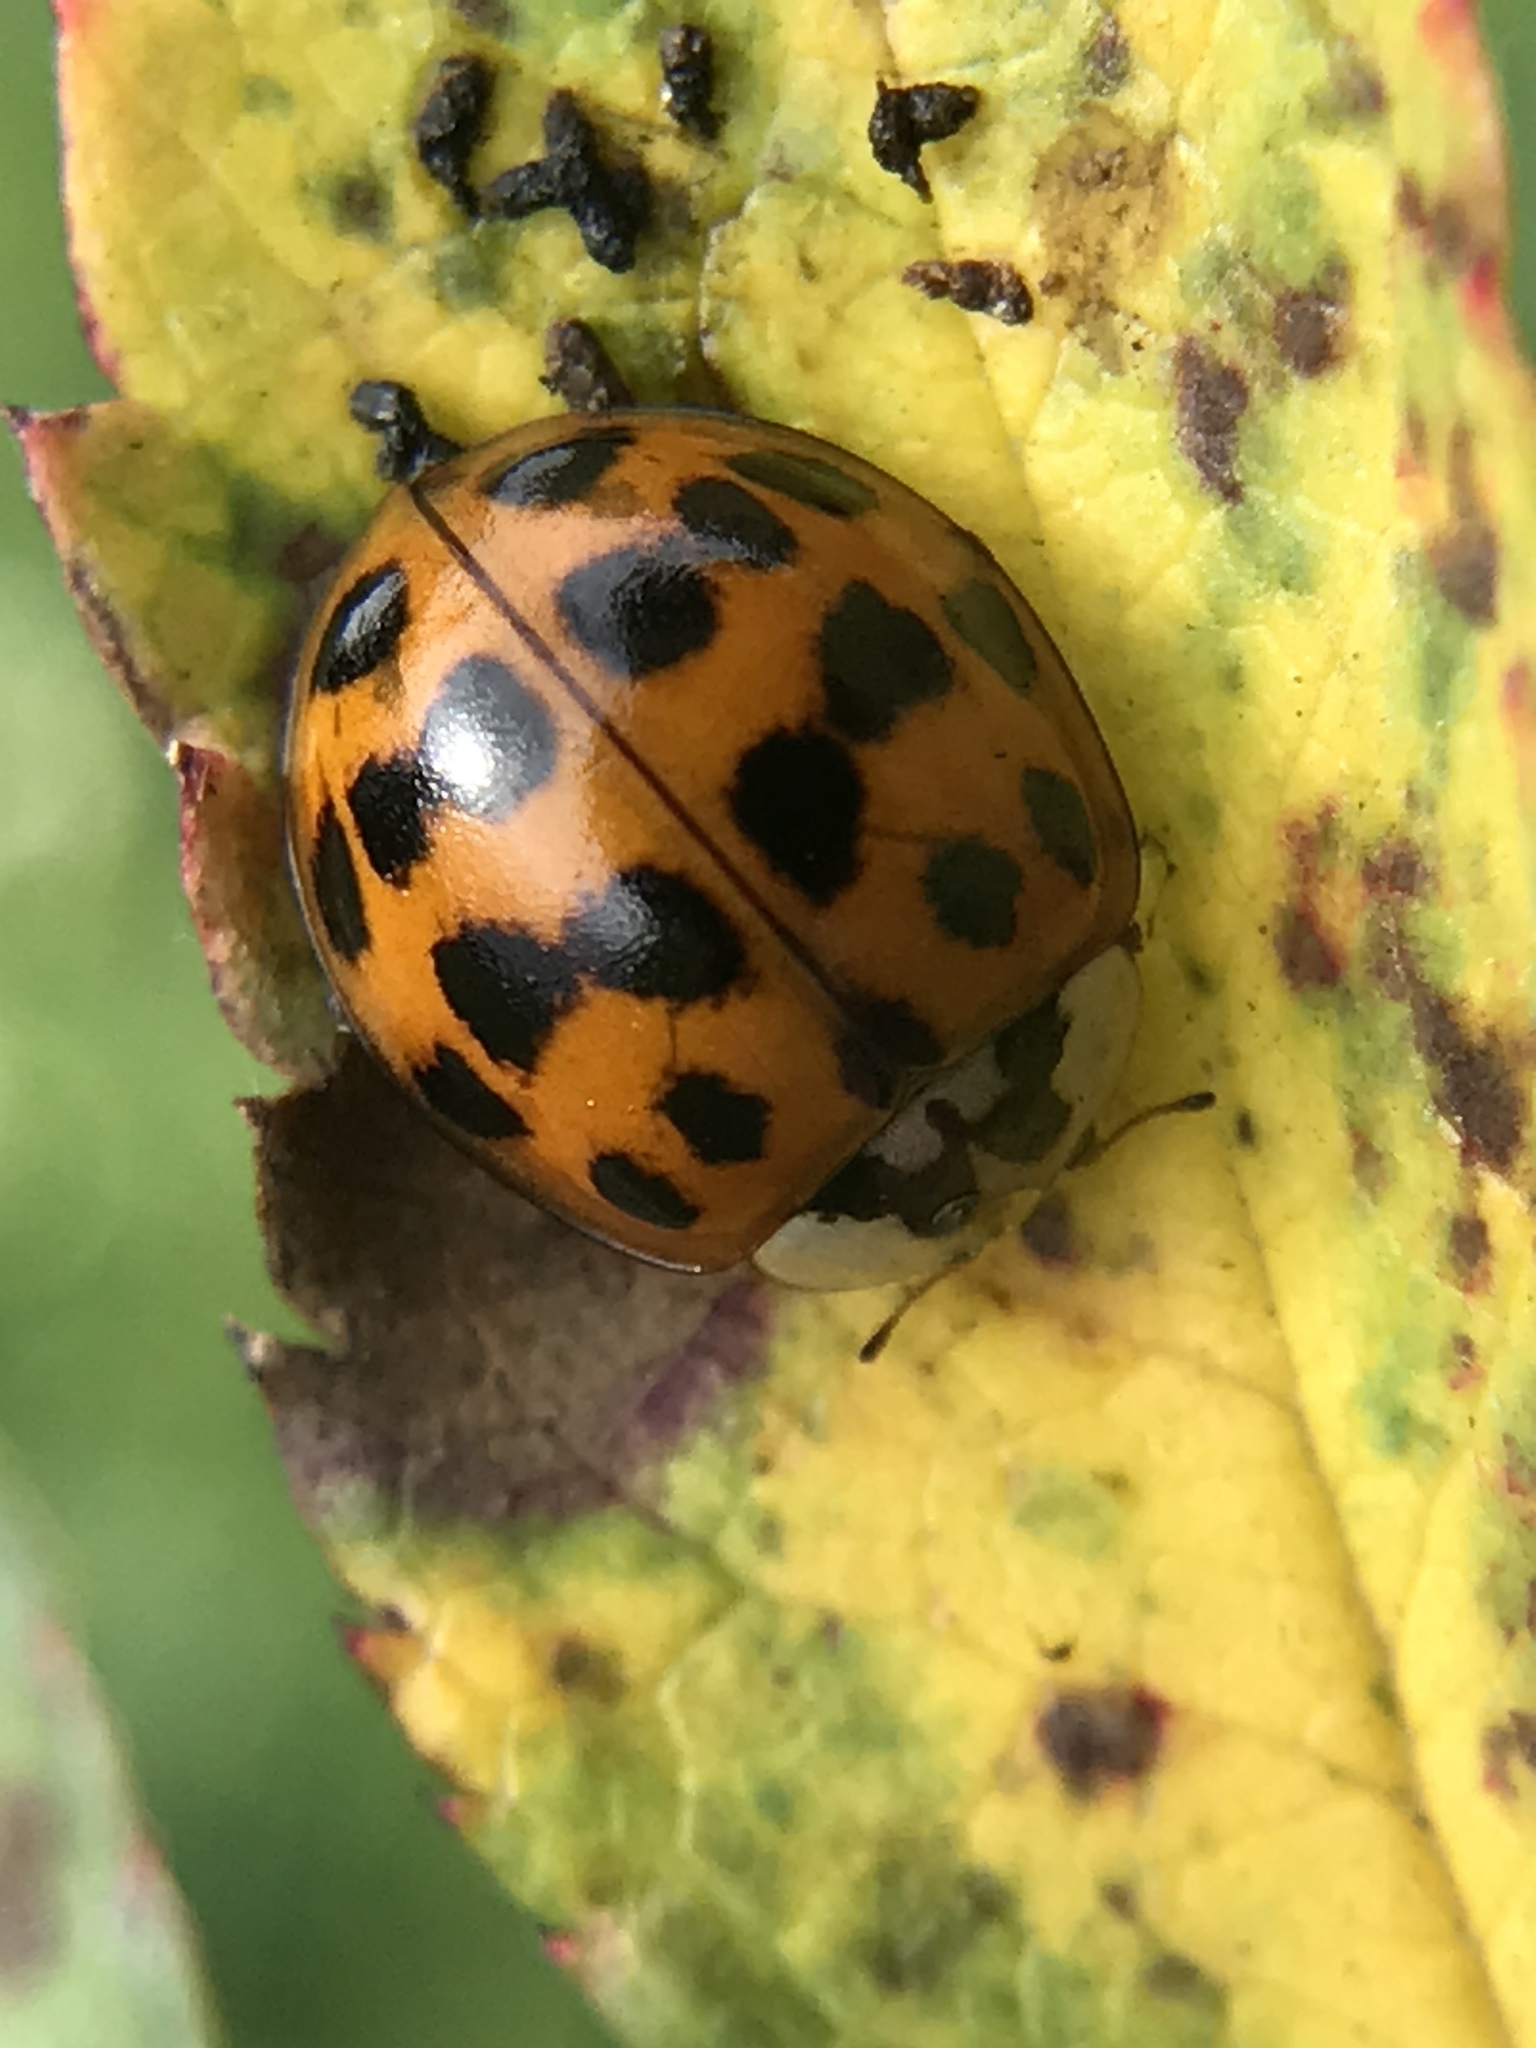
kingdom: Animalia
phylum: Arthropoda
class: Insecta
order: Coleoptera
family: Coccinellidae
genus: Harmonia
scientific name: Harmonia axyridis
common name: Harlequin ladybird
